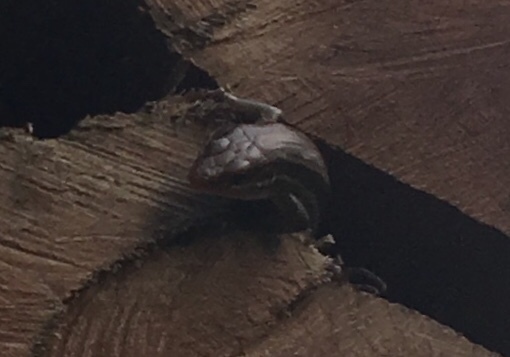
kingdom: Animalia
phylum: Chordata
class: Squamata
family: Scincidae
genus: Plestiodon
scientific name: Plestiodon laticeps
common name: Broadhead skink
